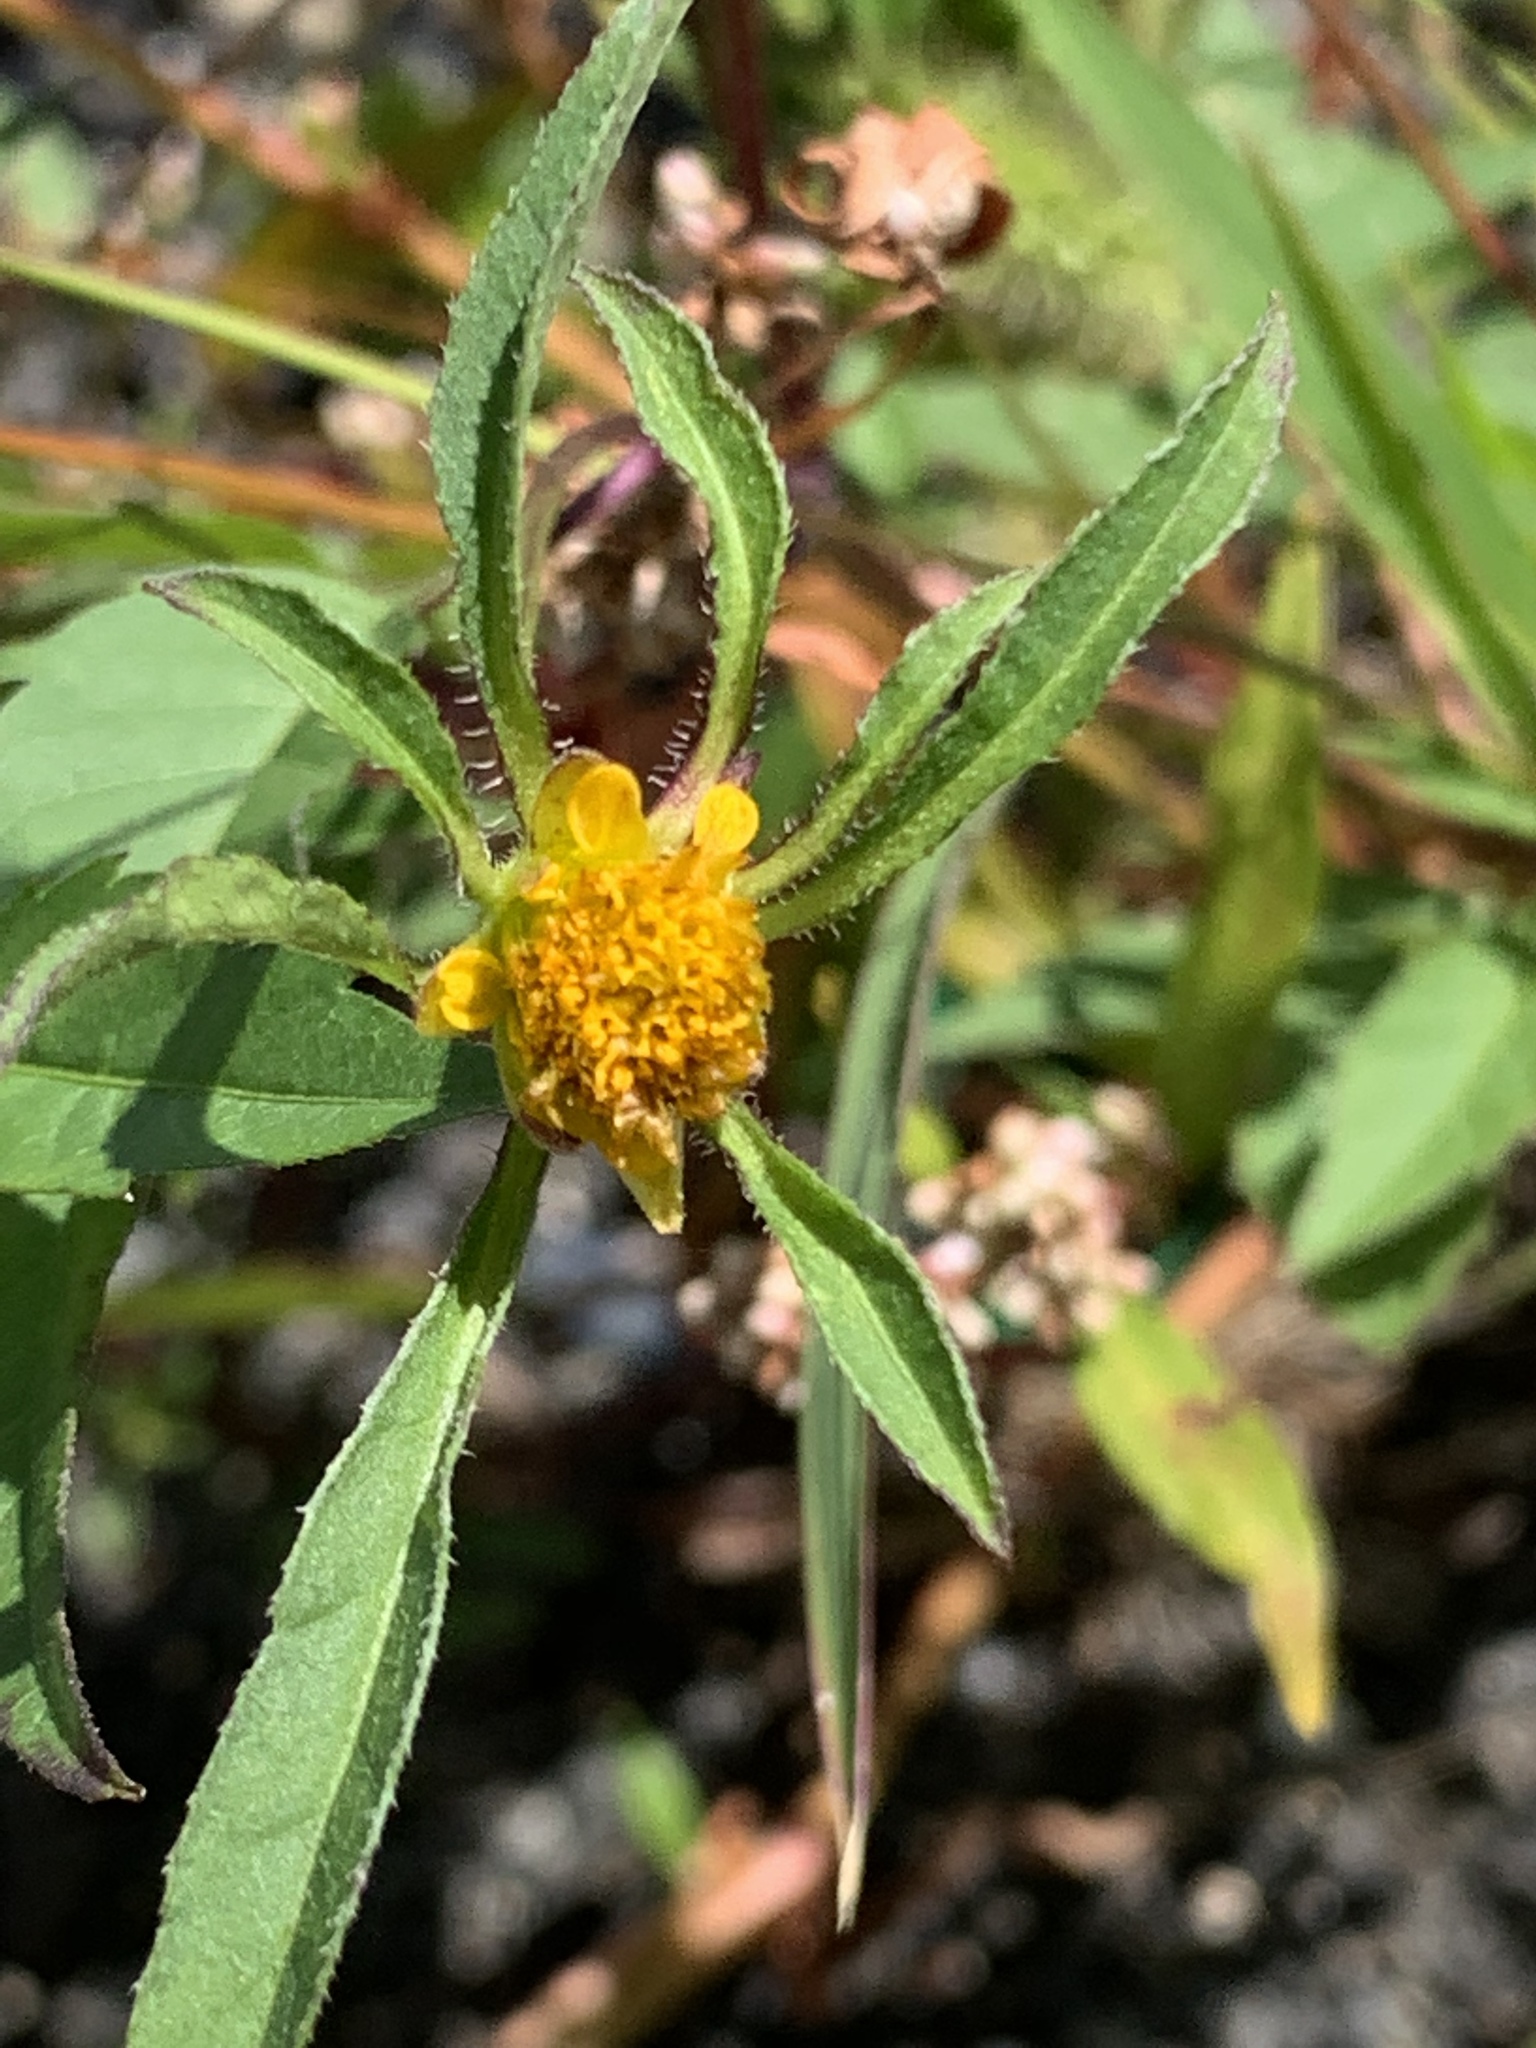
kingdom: Plantae
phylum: Tracheophyta
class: Magnoliopsida
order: Asterales
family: Asteraceae
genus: Bidens
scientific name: Bidens frondosa
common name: Beggarticks
